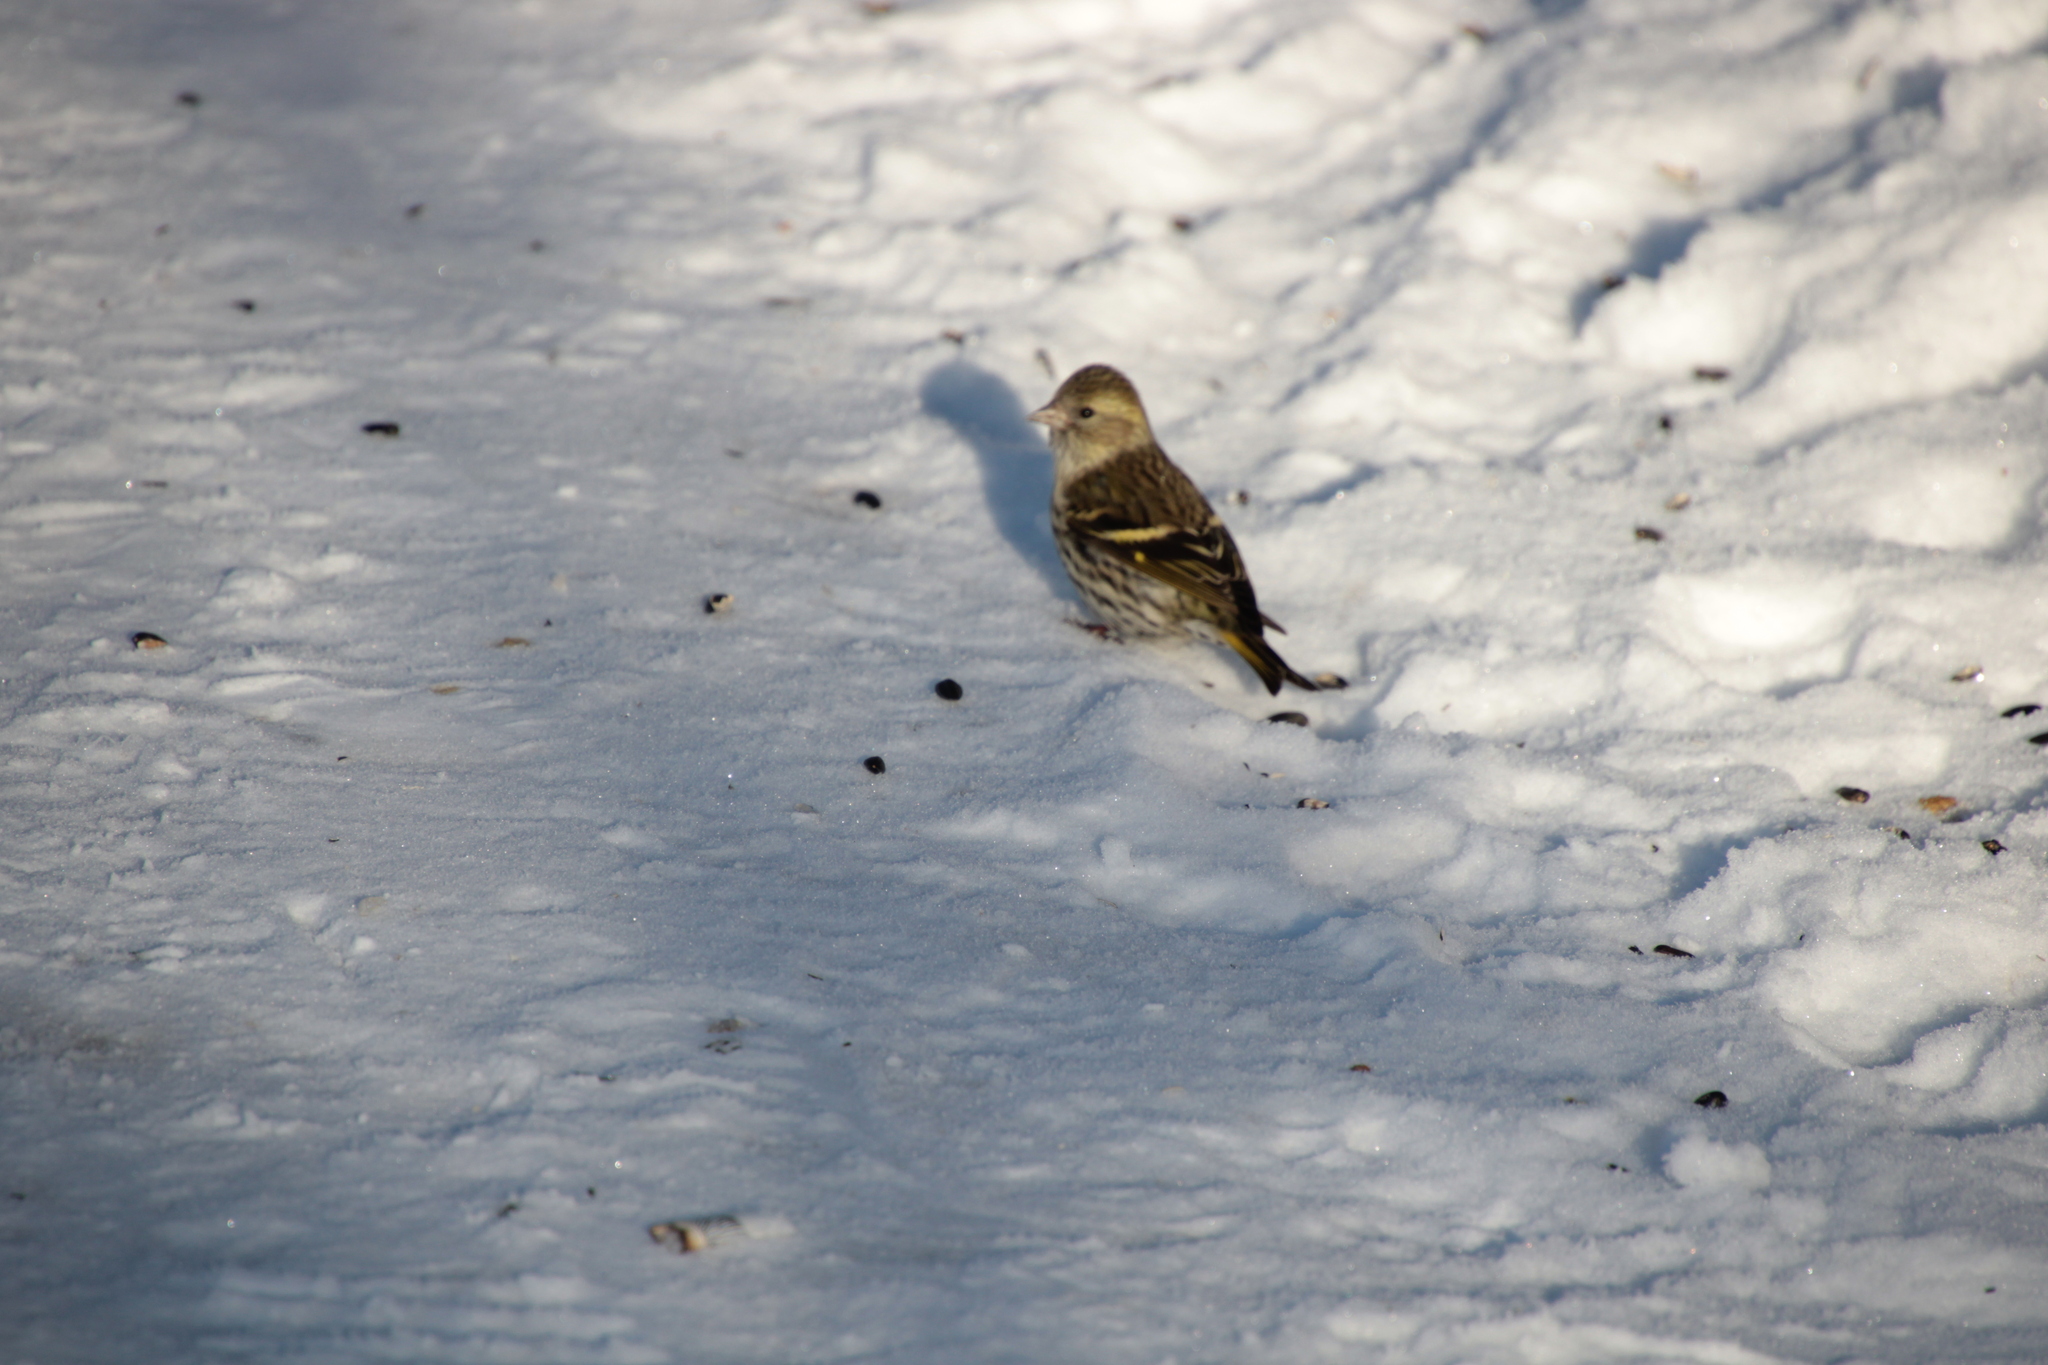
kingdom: Animalia
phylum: Chordata
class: Aves
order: Passeriformes
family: Fringillidae
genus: Spinus
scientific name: Spinus spinus
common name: Eurasian siskin
